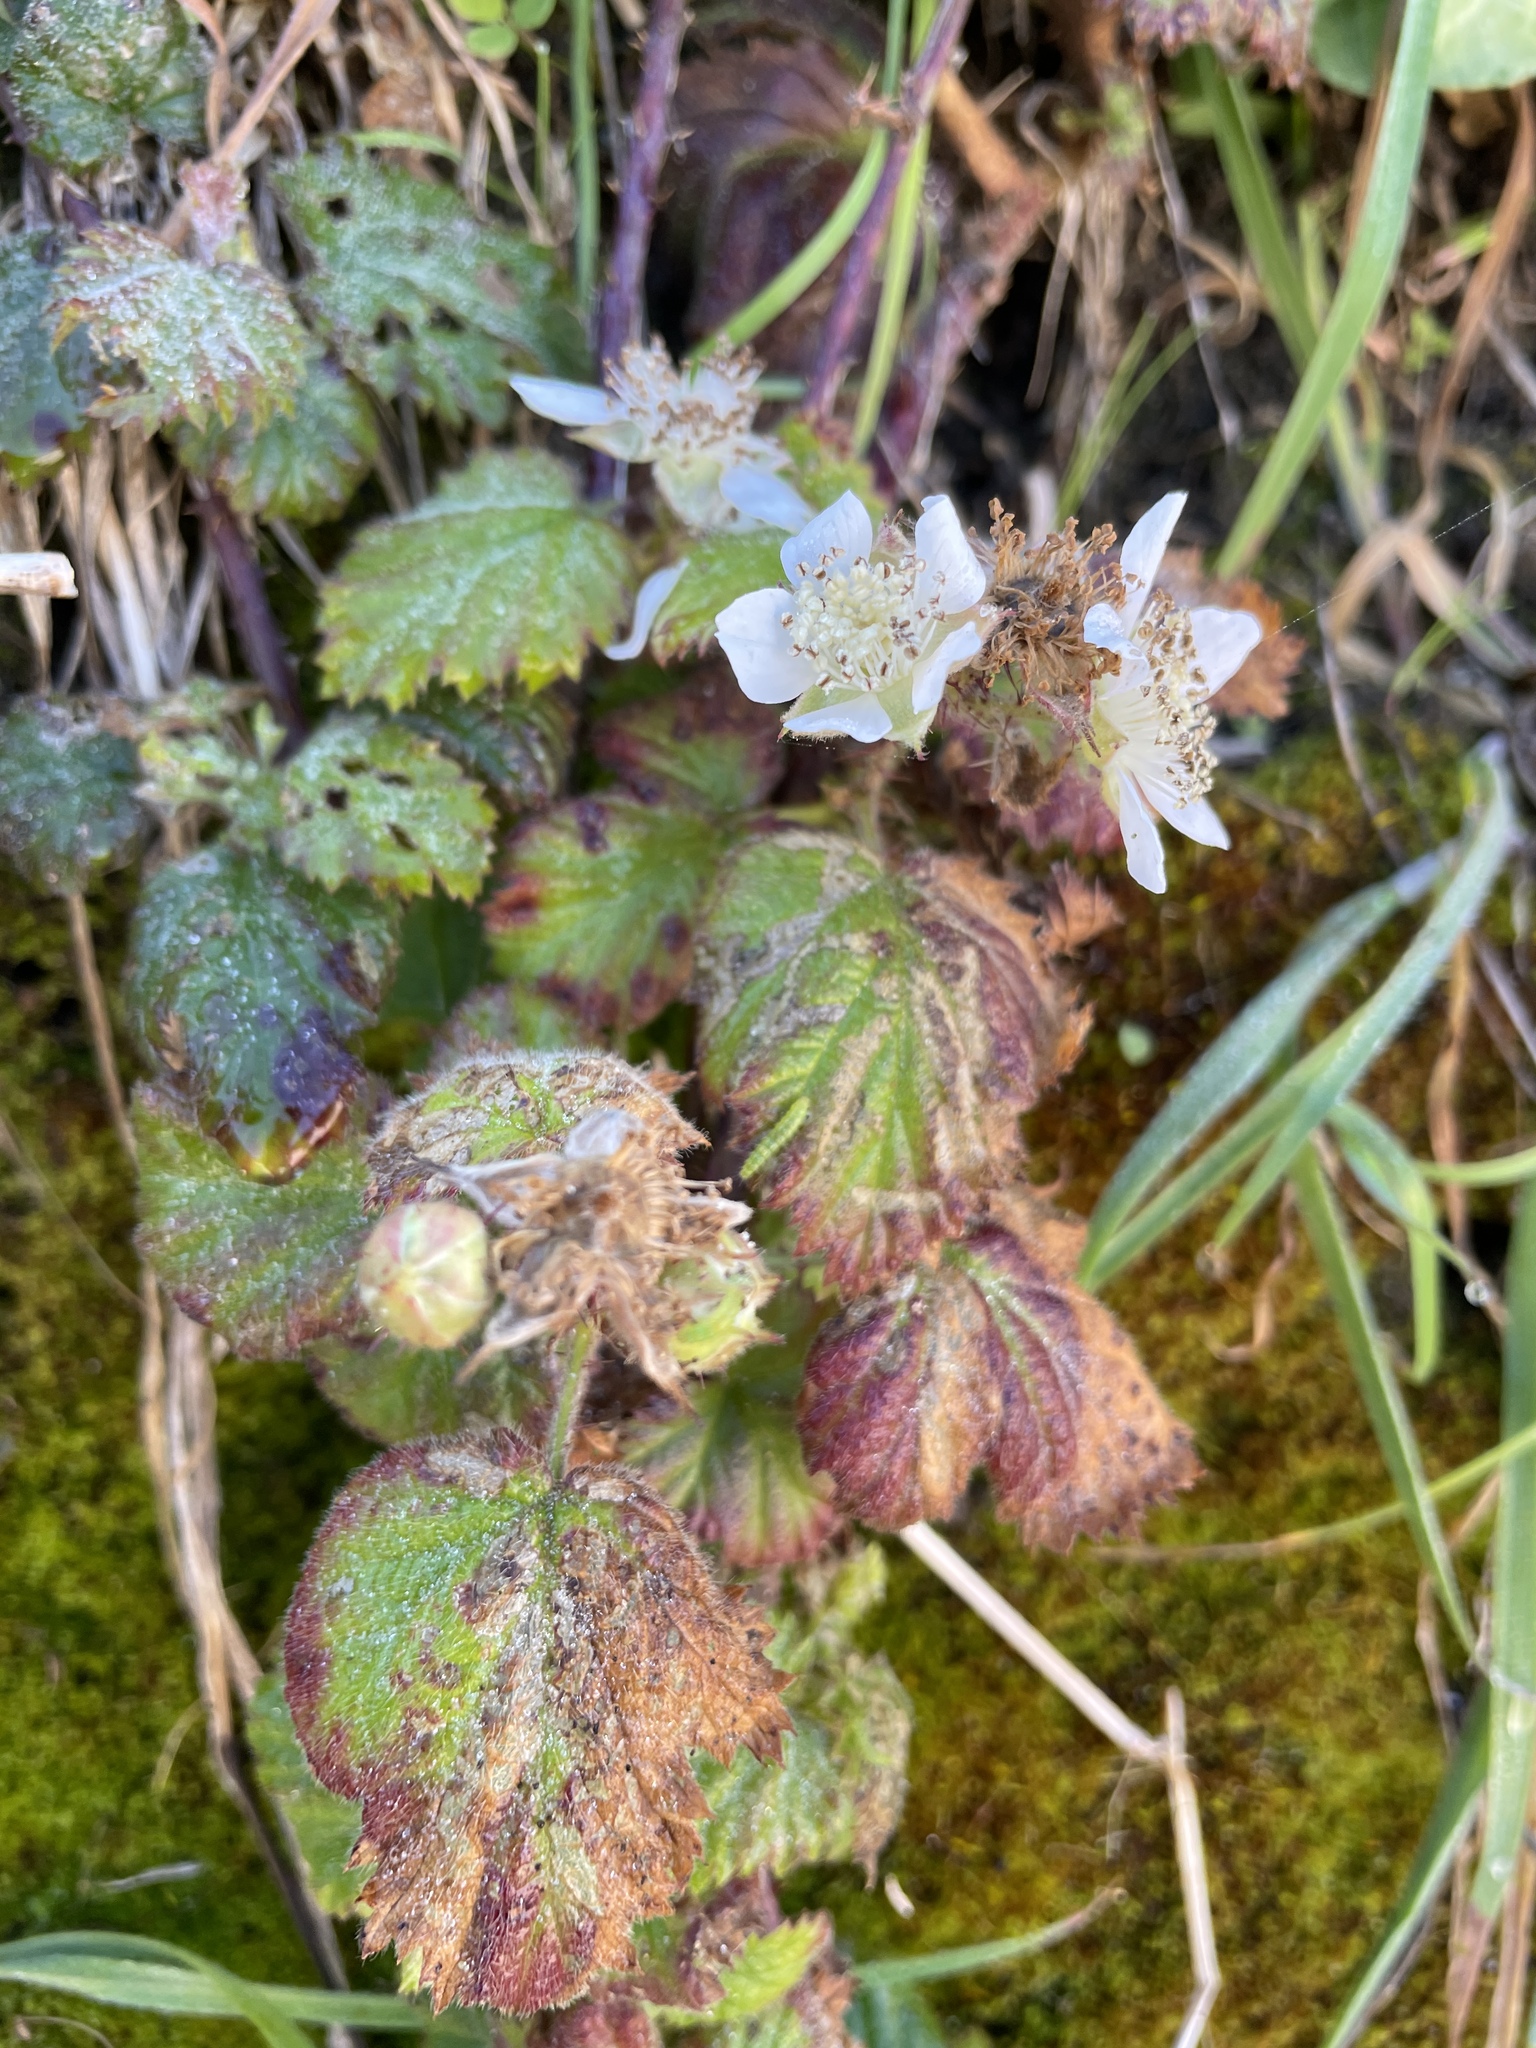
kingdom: Plantae
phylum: Tracheophyta
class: Magnoliopsida
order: Rosales
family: Rosaceae
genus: Rubus
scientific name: Rubus ursinus
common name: Pacific blackberry
